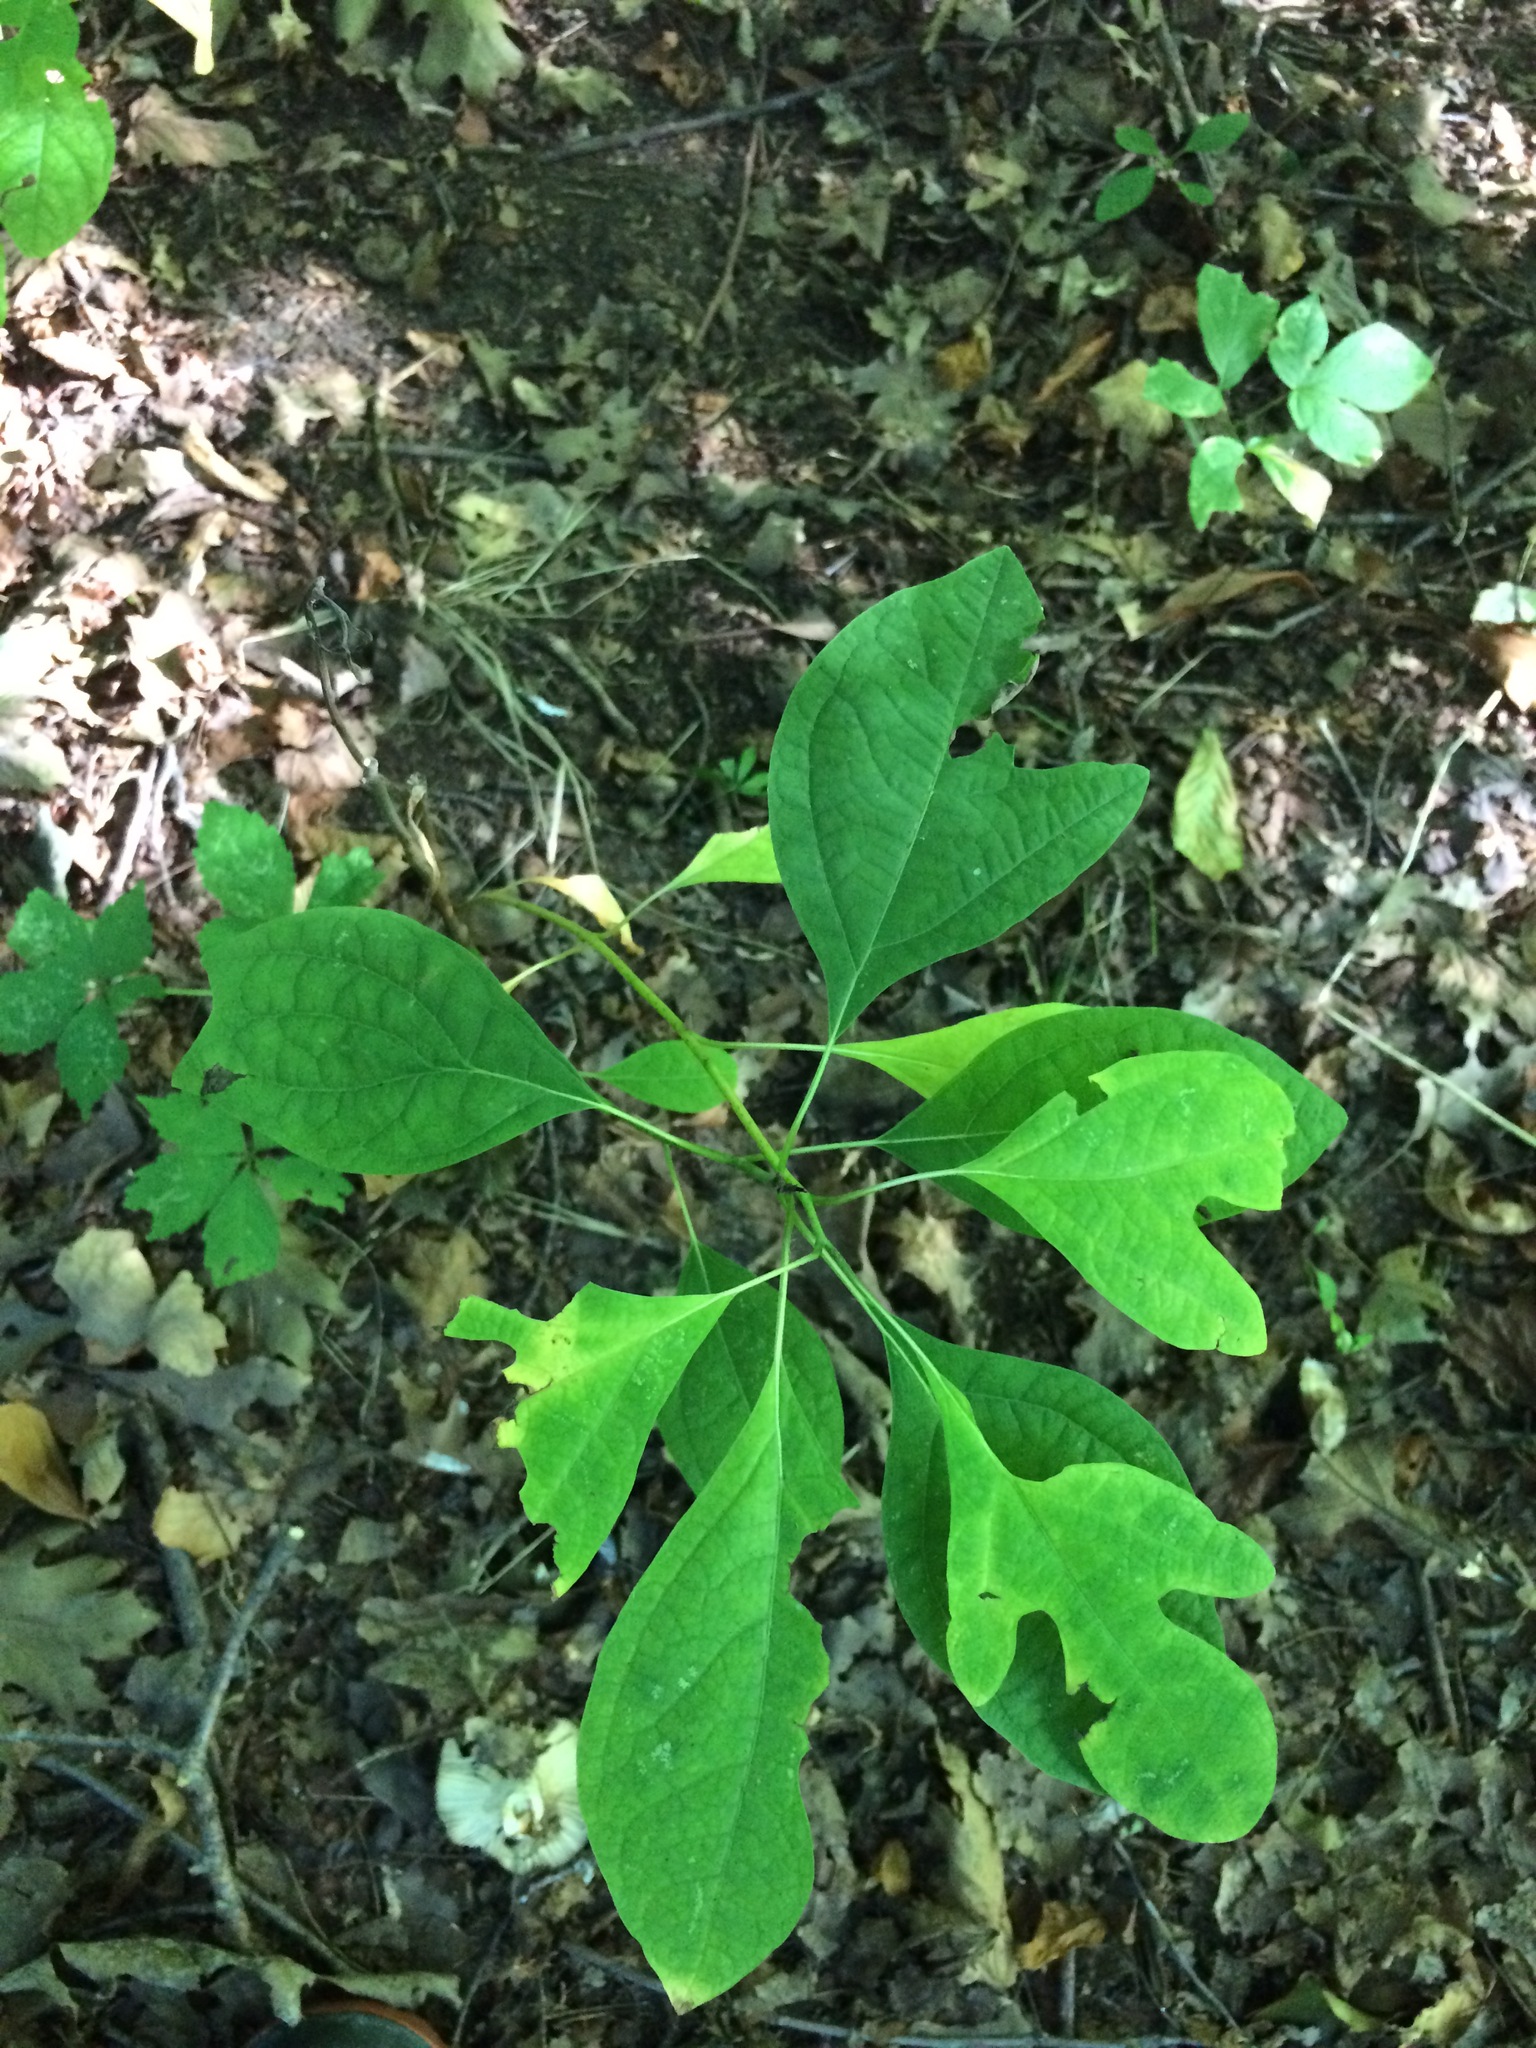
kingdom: Plantae
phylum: Tracheophyta
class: Magnoliopsida
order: Laurales
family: Lauraceae
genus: Sassafras
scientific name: Sassafras albidum
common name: Sassafras
